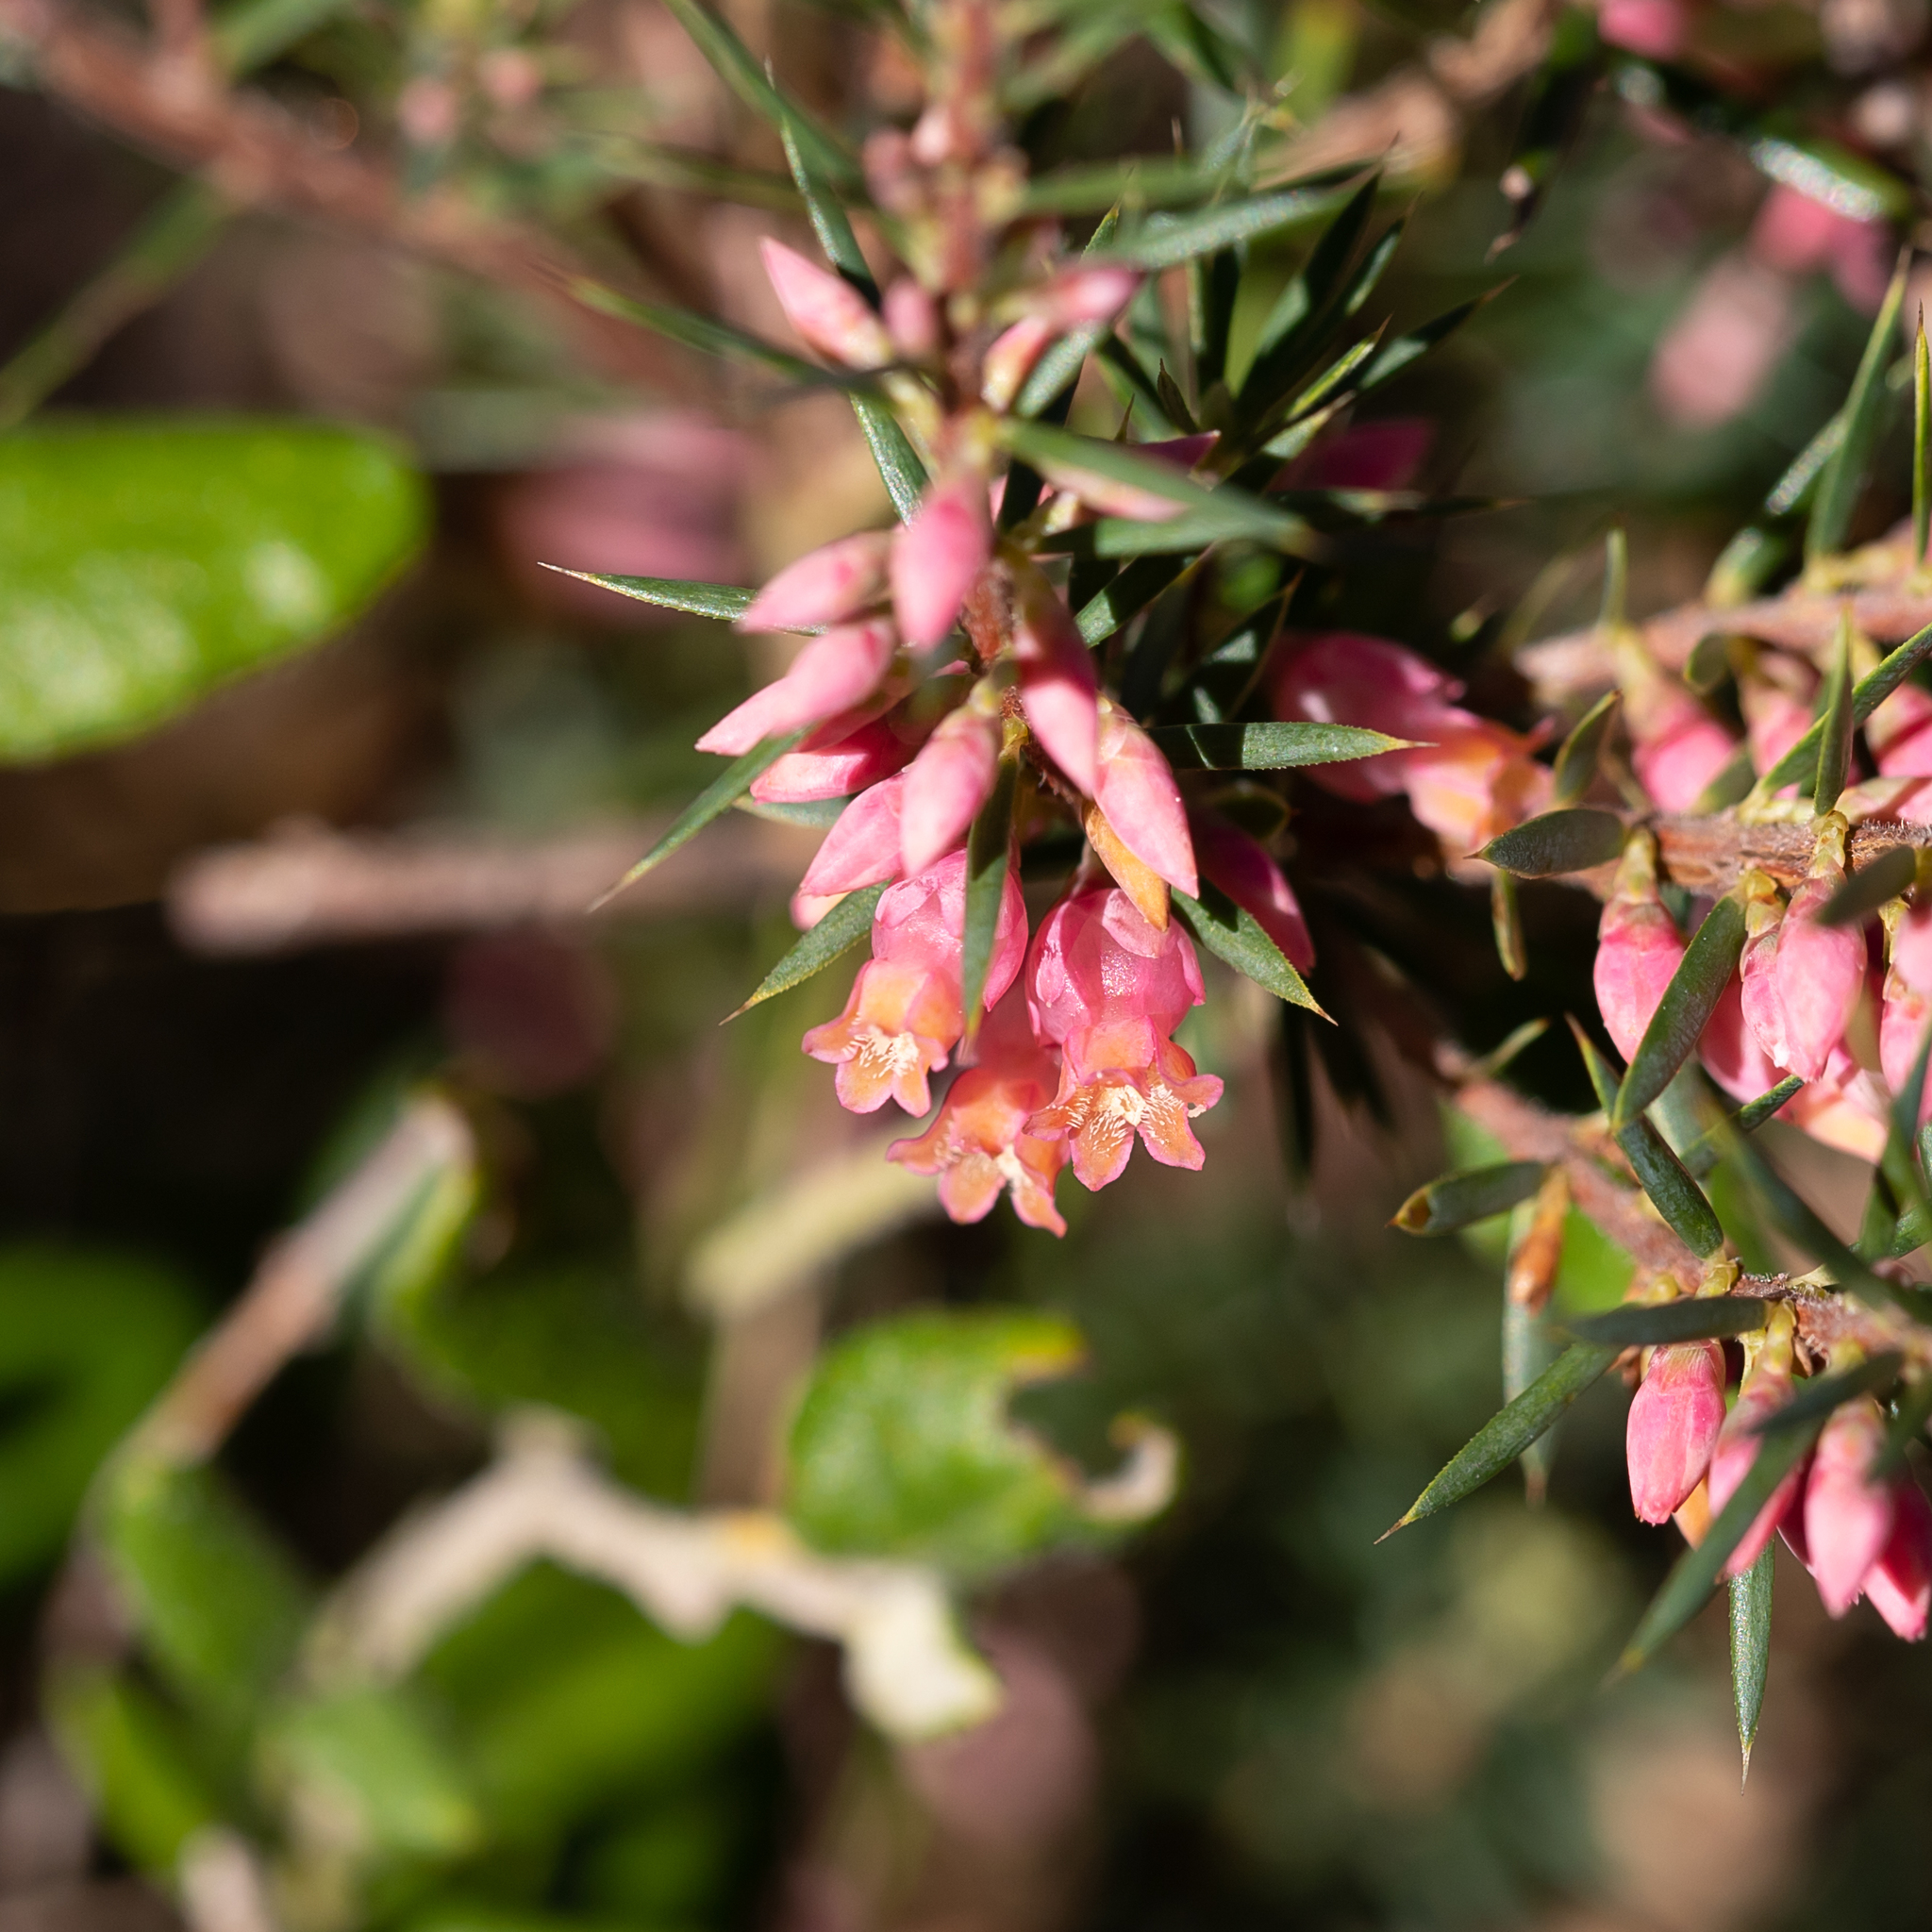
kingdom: Plantae
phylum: Tracheophyta
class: Magnoliopsida
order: Ericales
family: Ericaceae
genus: Brachyloma
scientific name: Brachyloma ericoides
